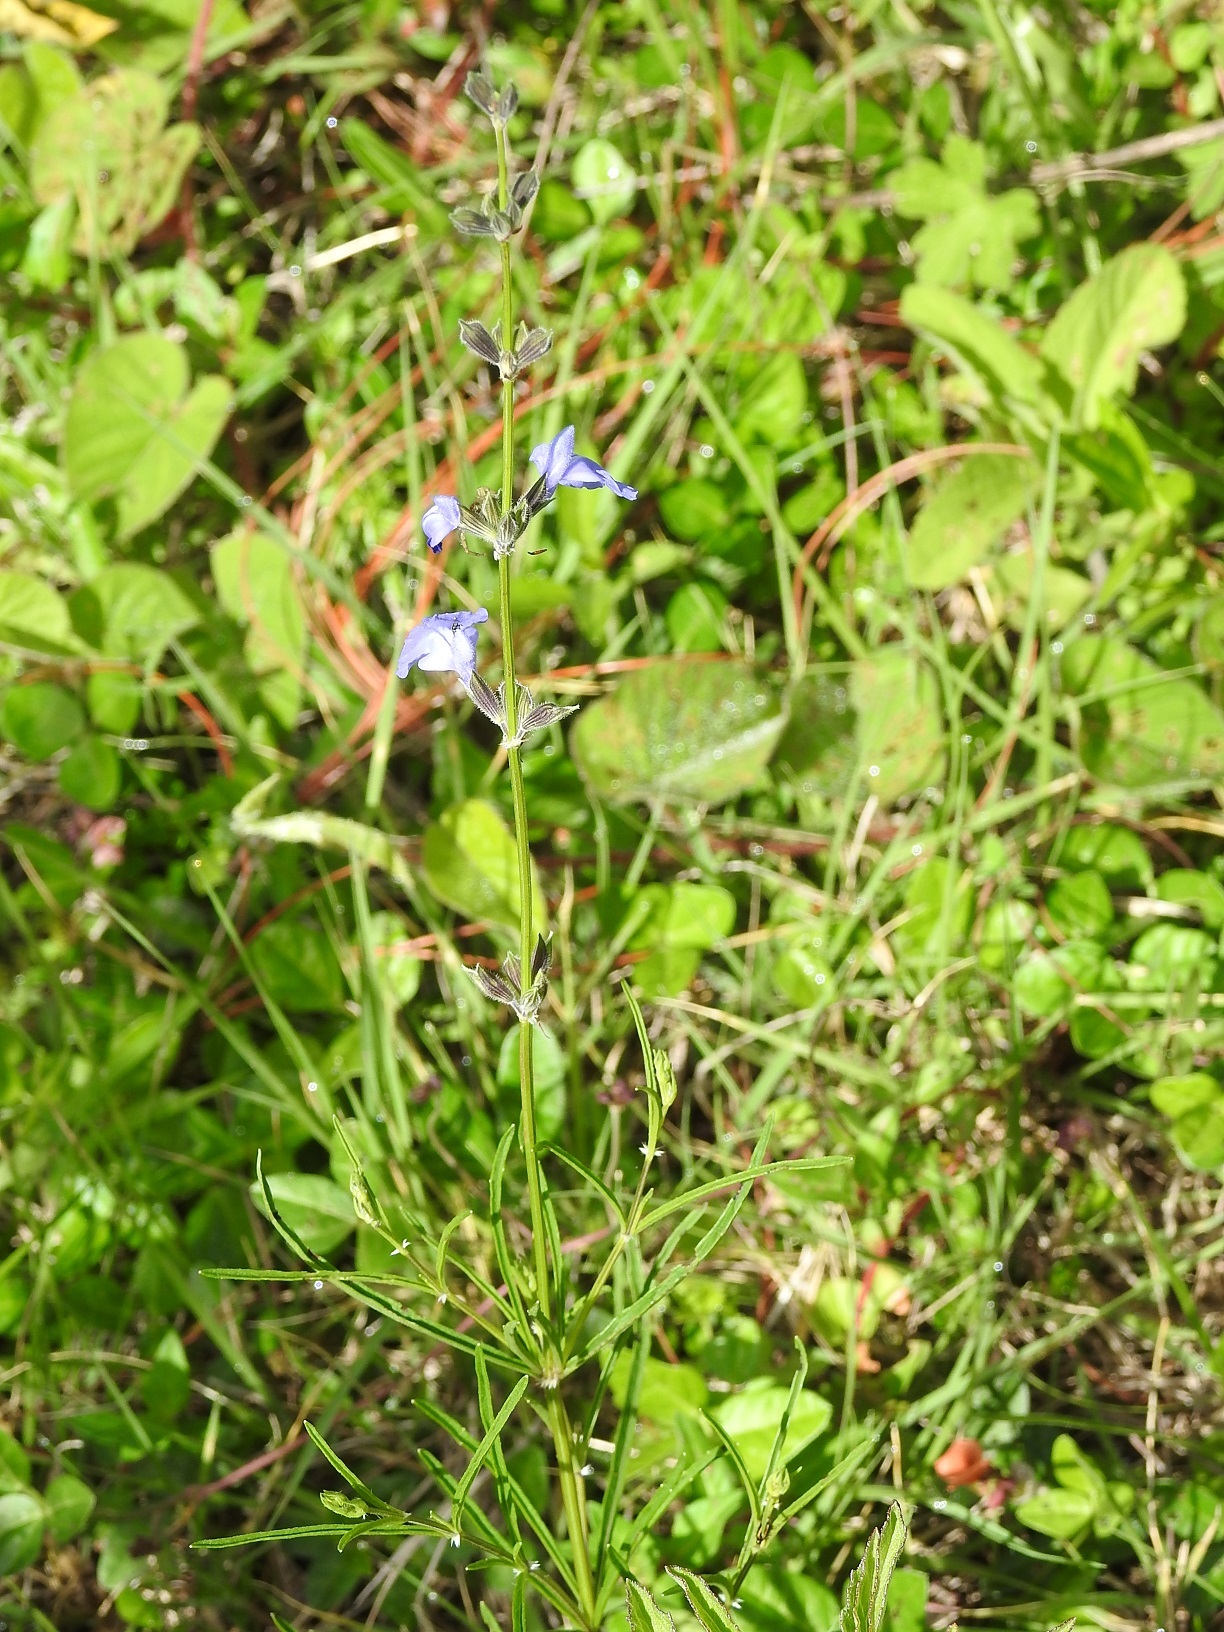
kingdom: Plantae
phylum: Tracheophyta
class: Magnoliopsida
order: Lamiales
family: Lamiaceae
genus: Salvia
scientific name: Salvia reptans
